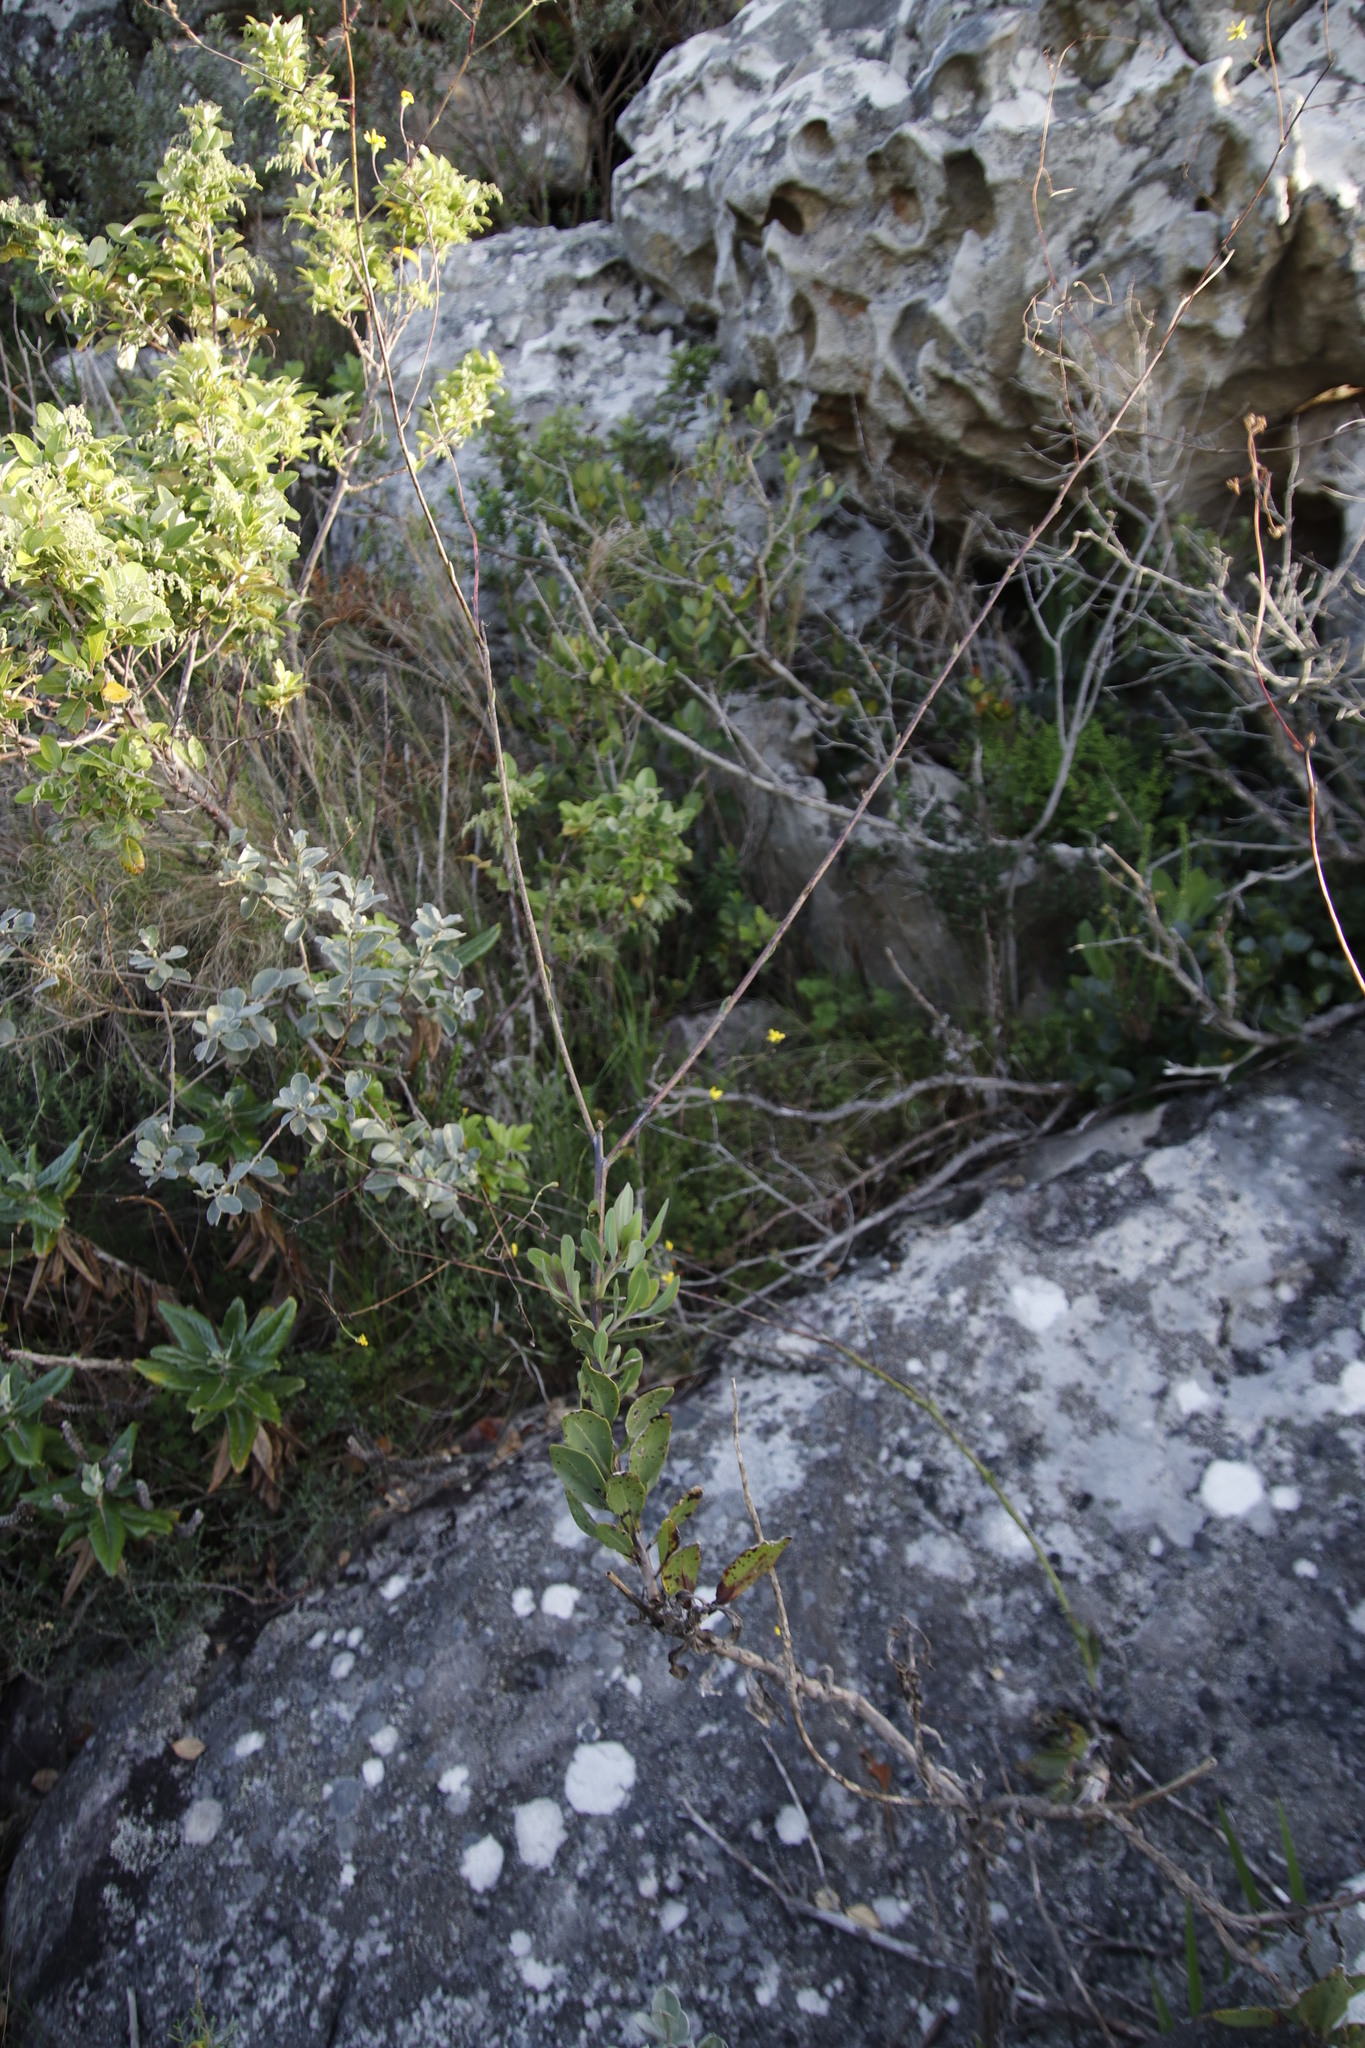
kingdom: Plantae
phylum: Tracheophyta
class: Magnoliopsida
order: Asterales
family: Asteraceae
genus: Othonna
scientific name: Othonna quinquedentata
